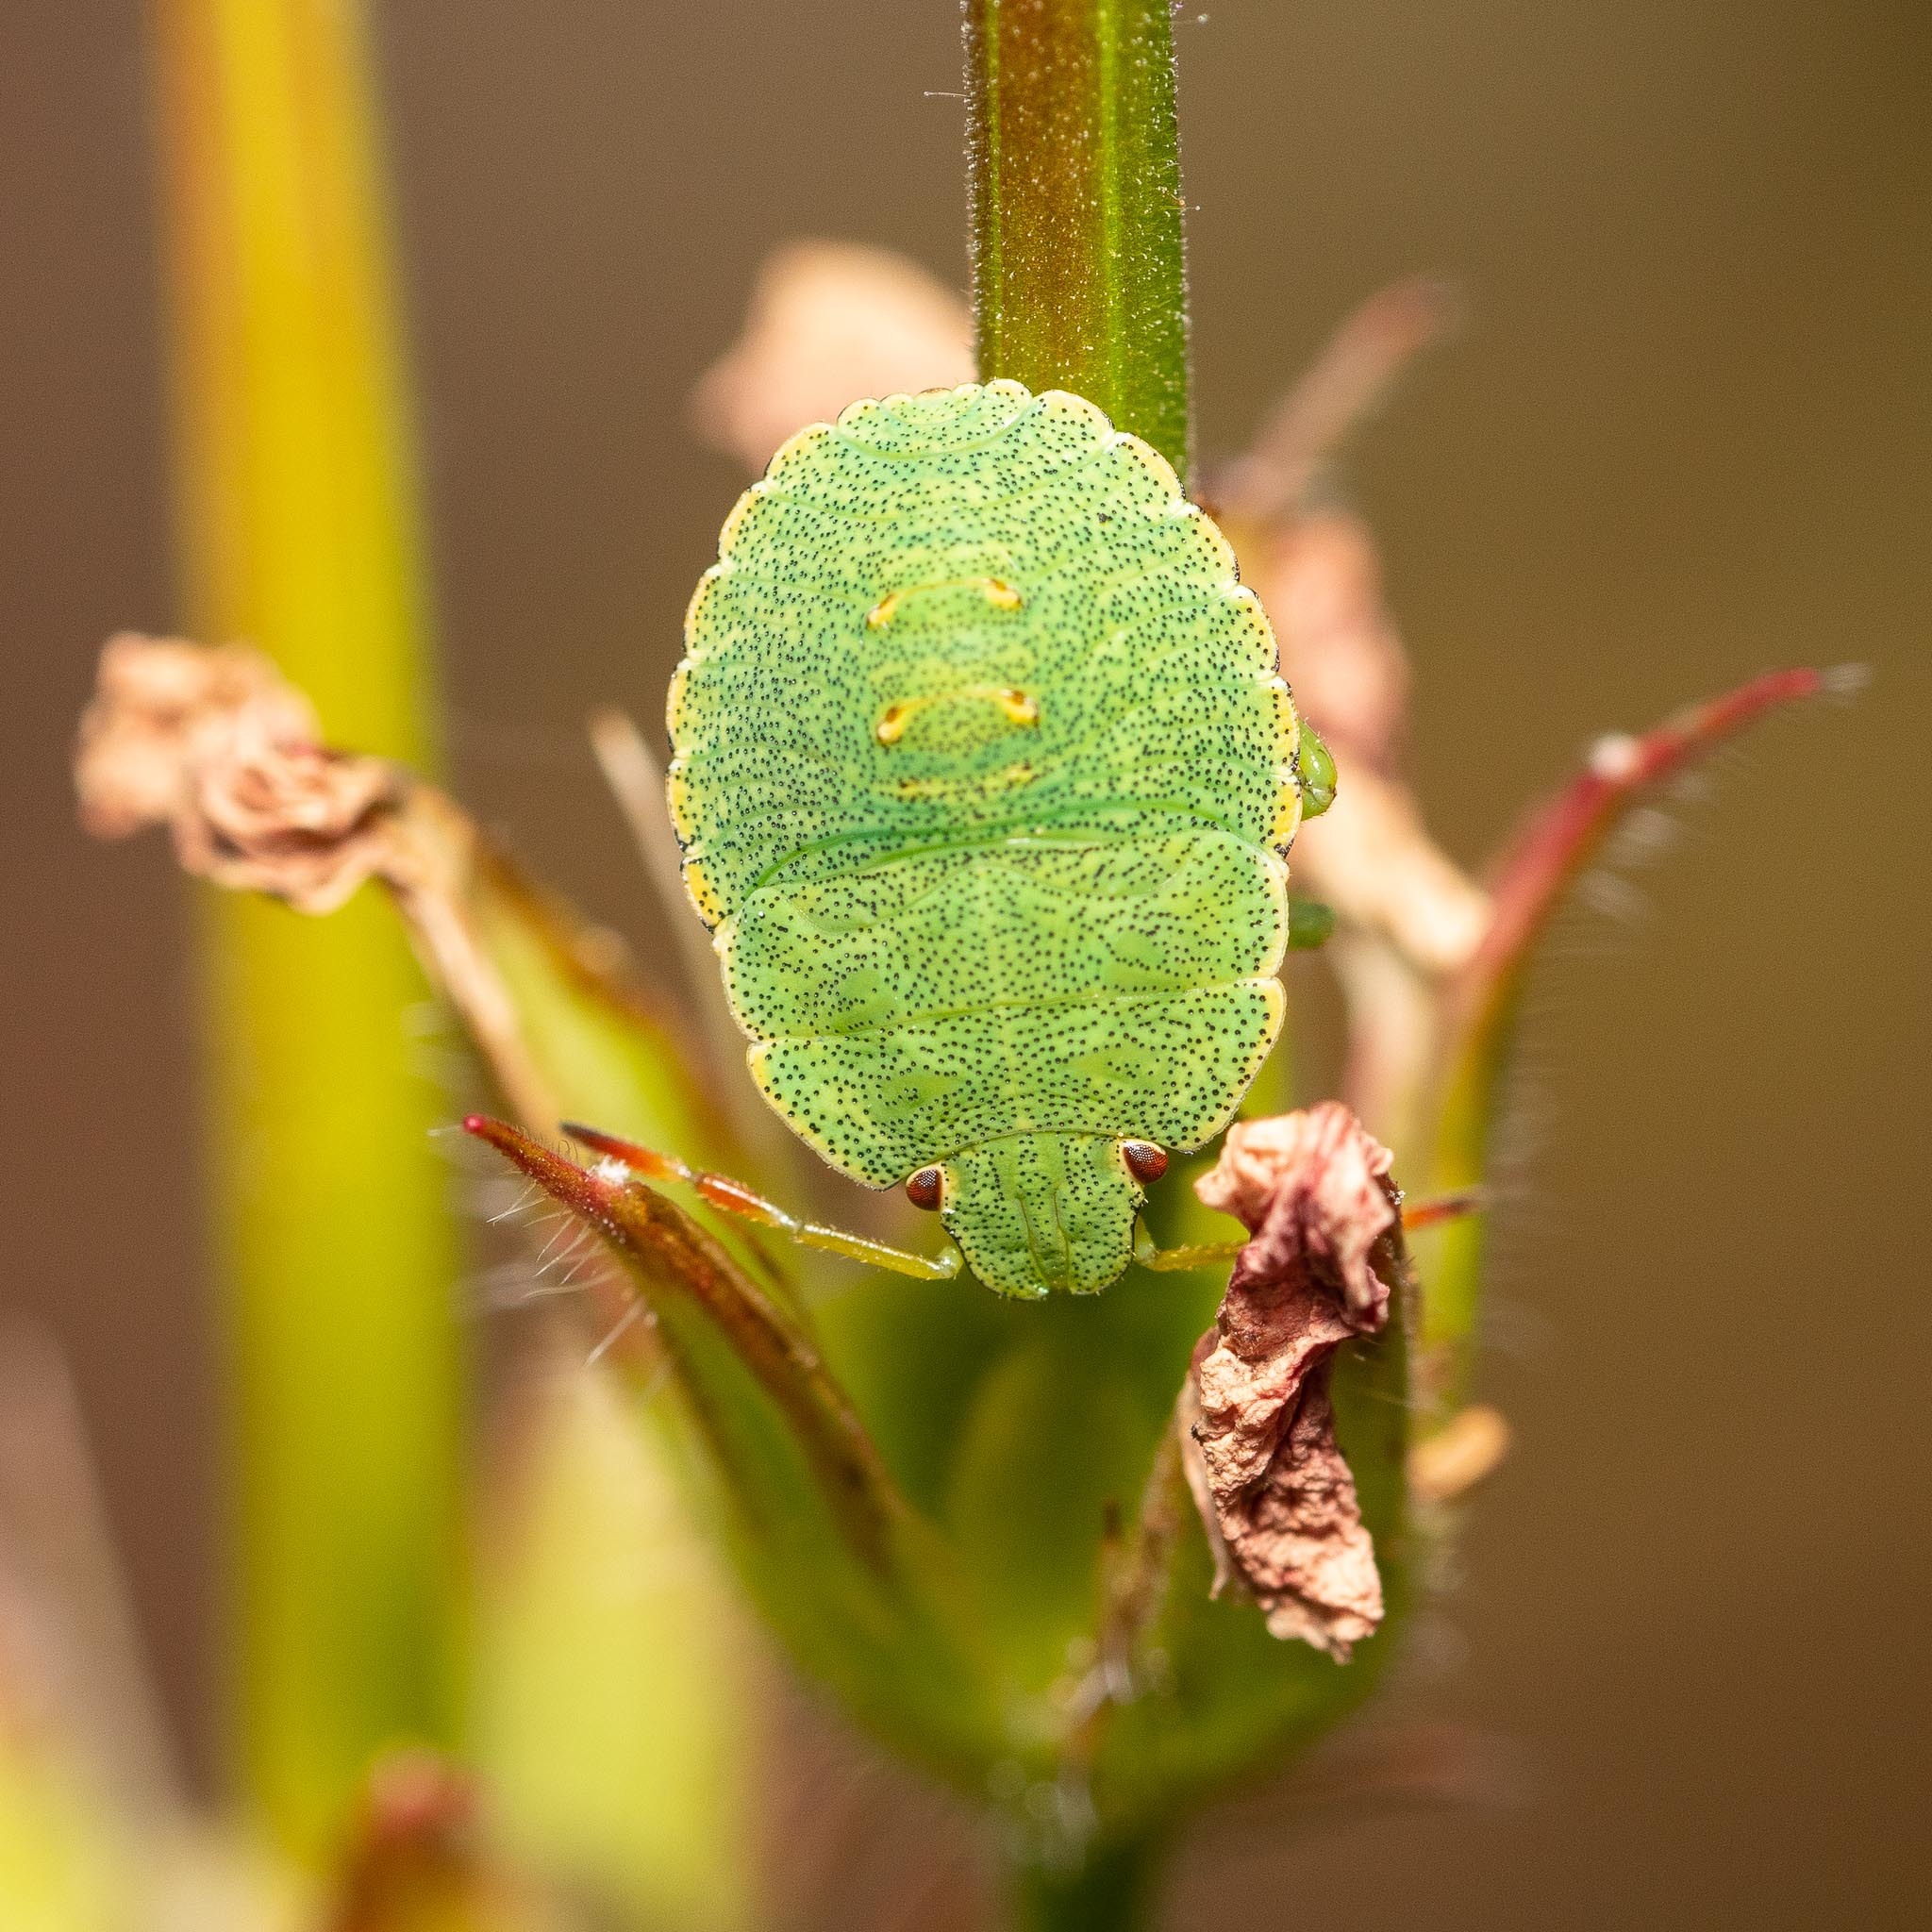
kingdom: Animalia
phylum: Arthropoda
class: Insecta
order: Hemiptera
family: Pentatomidae
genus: Palomena
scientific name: Palomena prasina
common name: Green shieldbug
